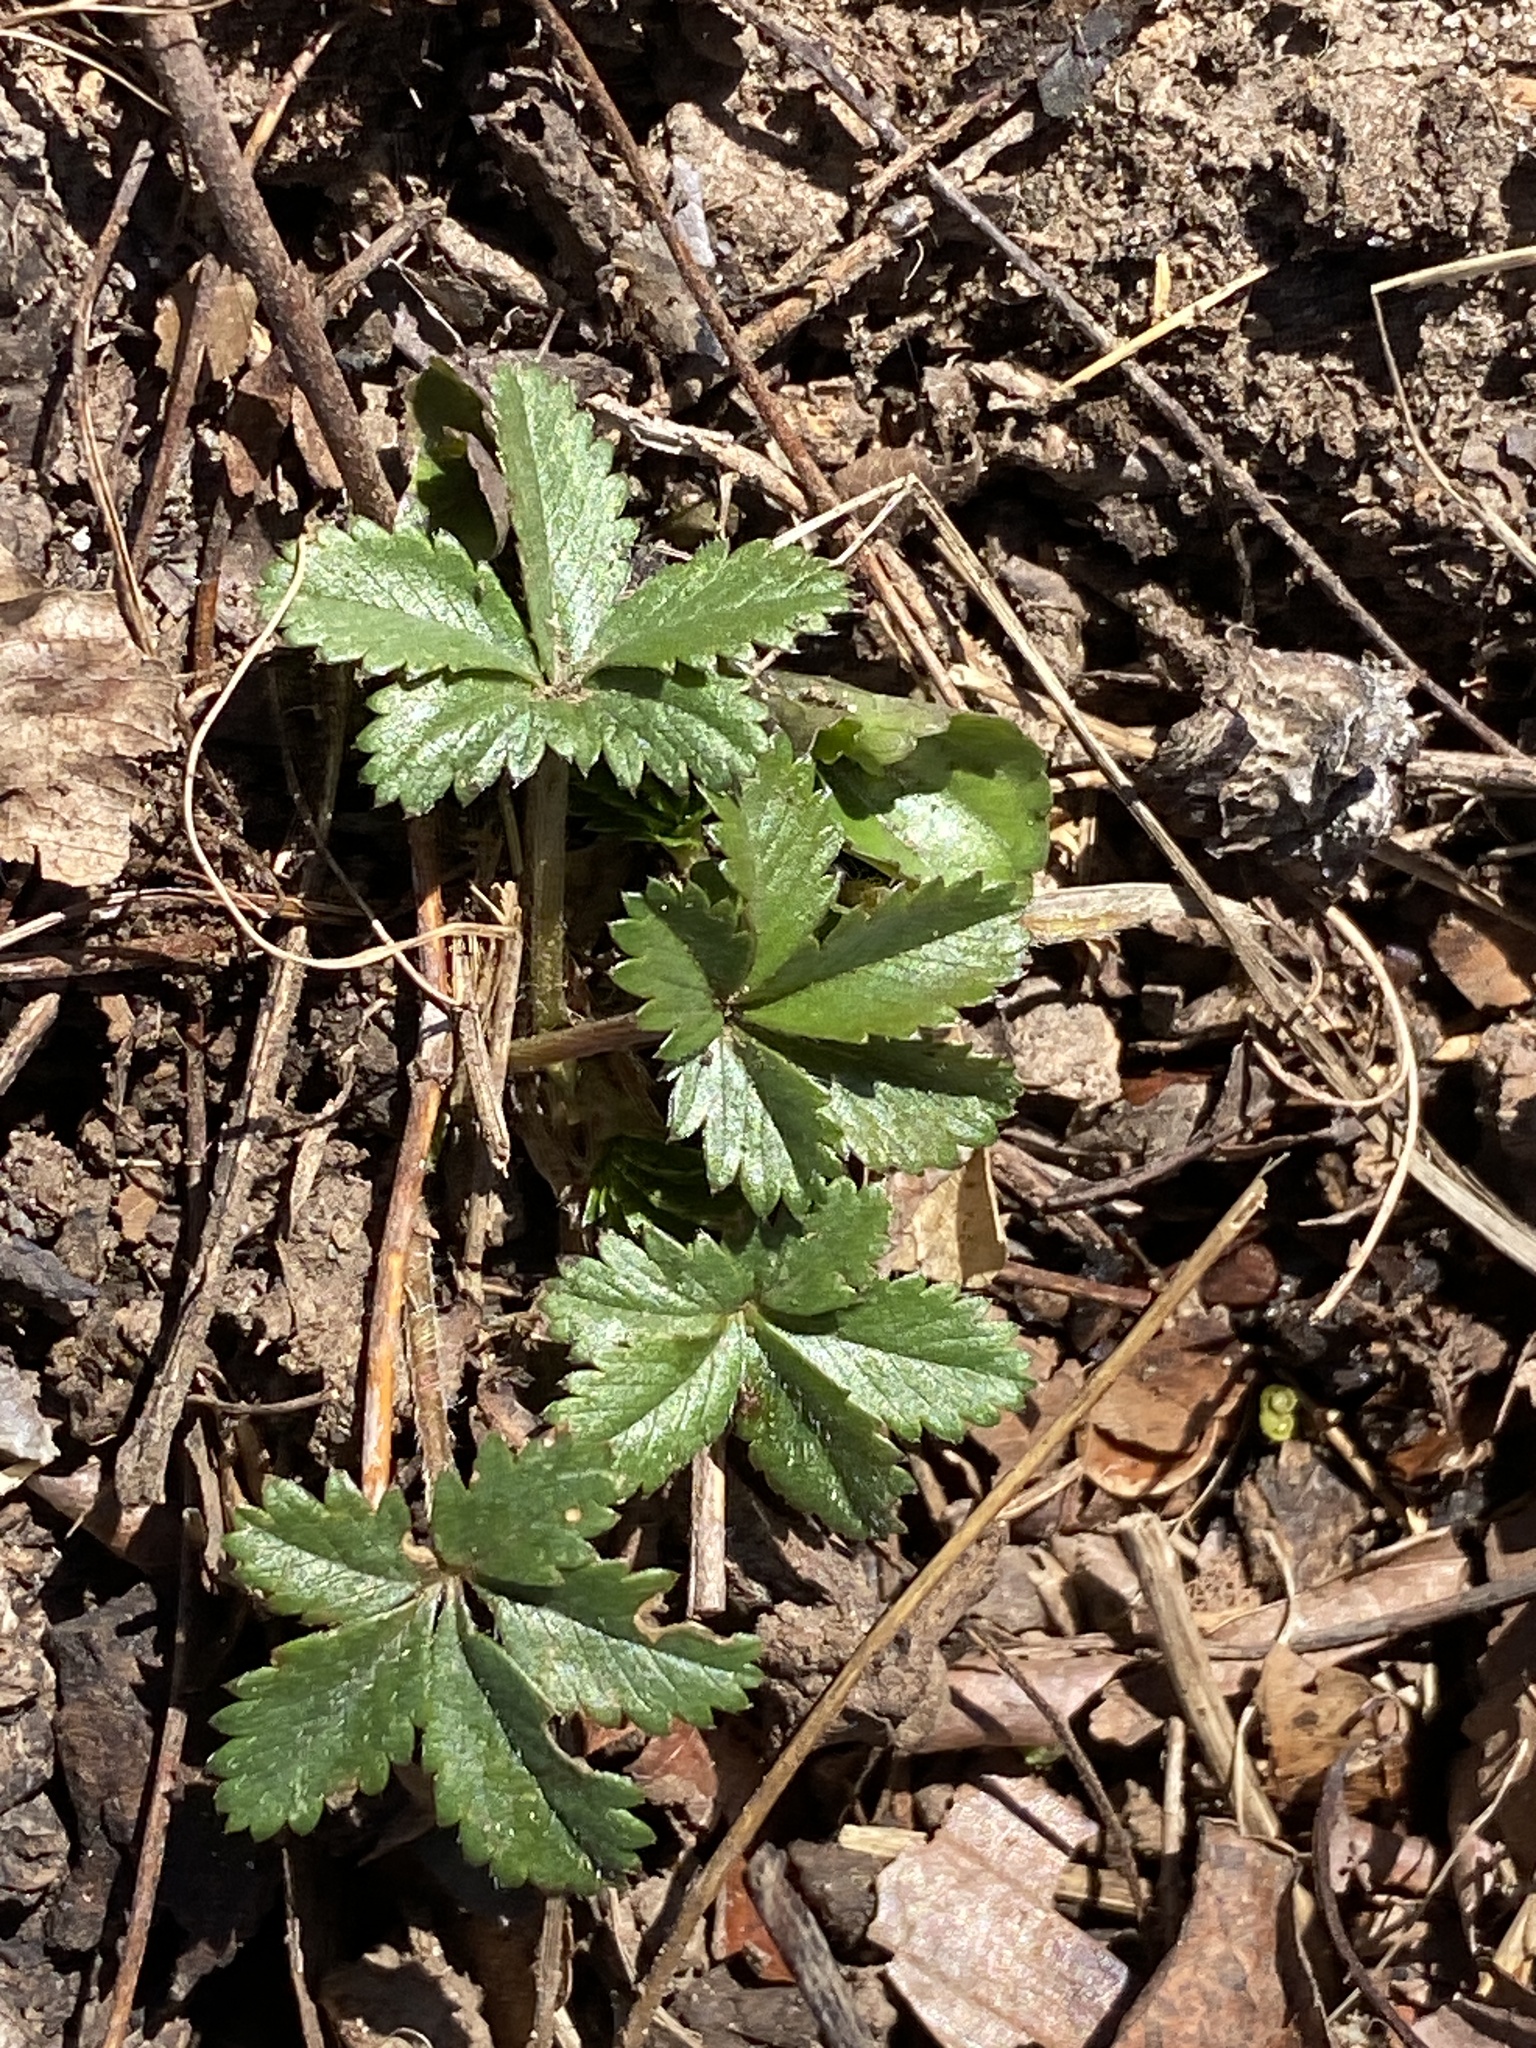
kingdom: Plantae
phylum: Tracheophyta
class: Magnoliopsida
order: Rosales
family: Rosaceae
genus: Potentilla
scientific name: Potentilla canadensis
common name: Canada cinquefoil
